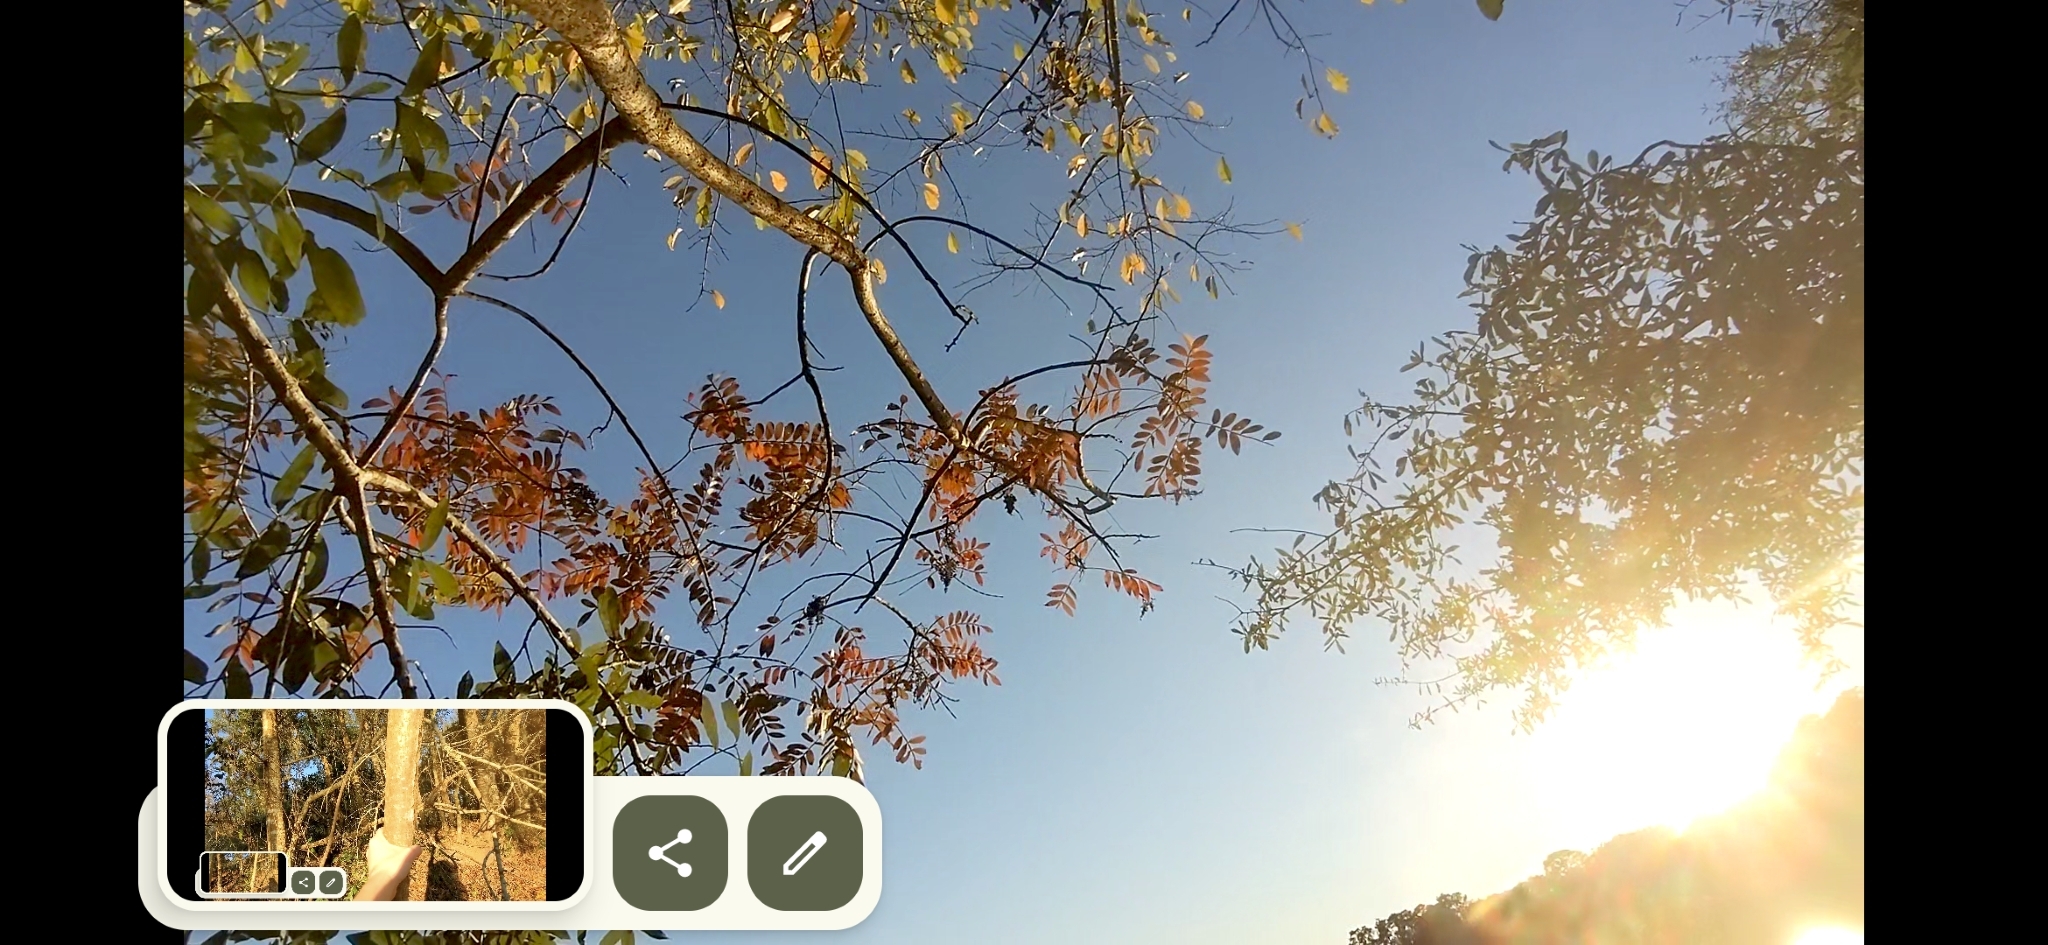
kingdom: Plantae
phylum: Tracheophyta
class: Magnoliopsida
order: Sapindales
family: Anacardiaceae
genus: Rhus
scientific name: Rhus copallina
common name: Shining sumac
